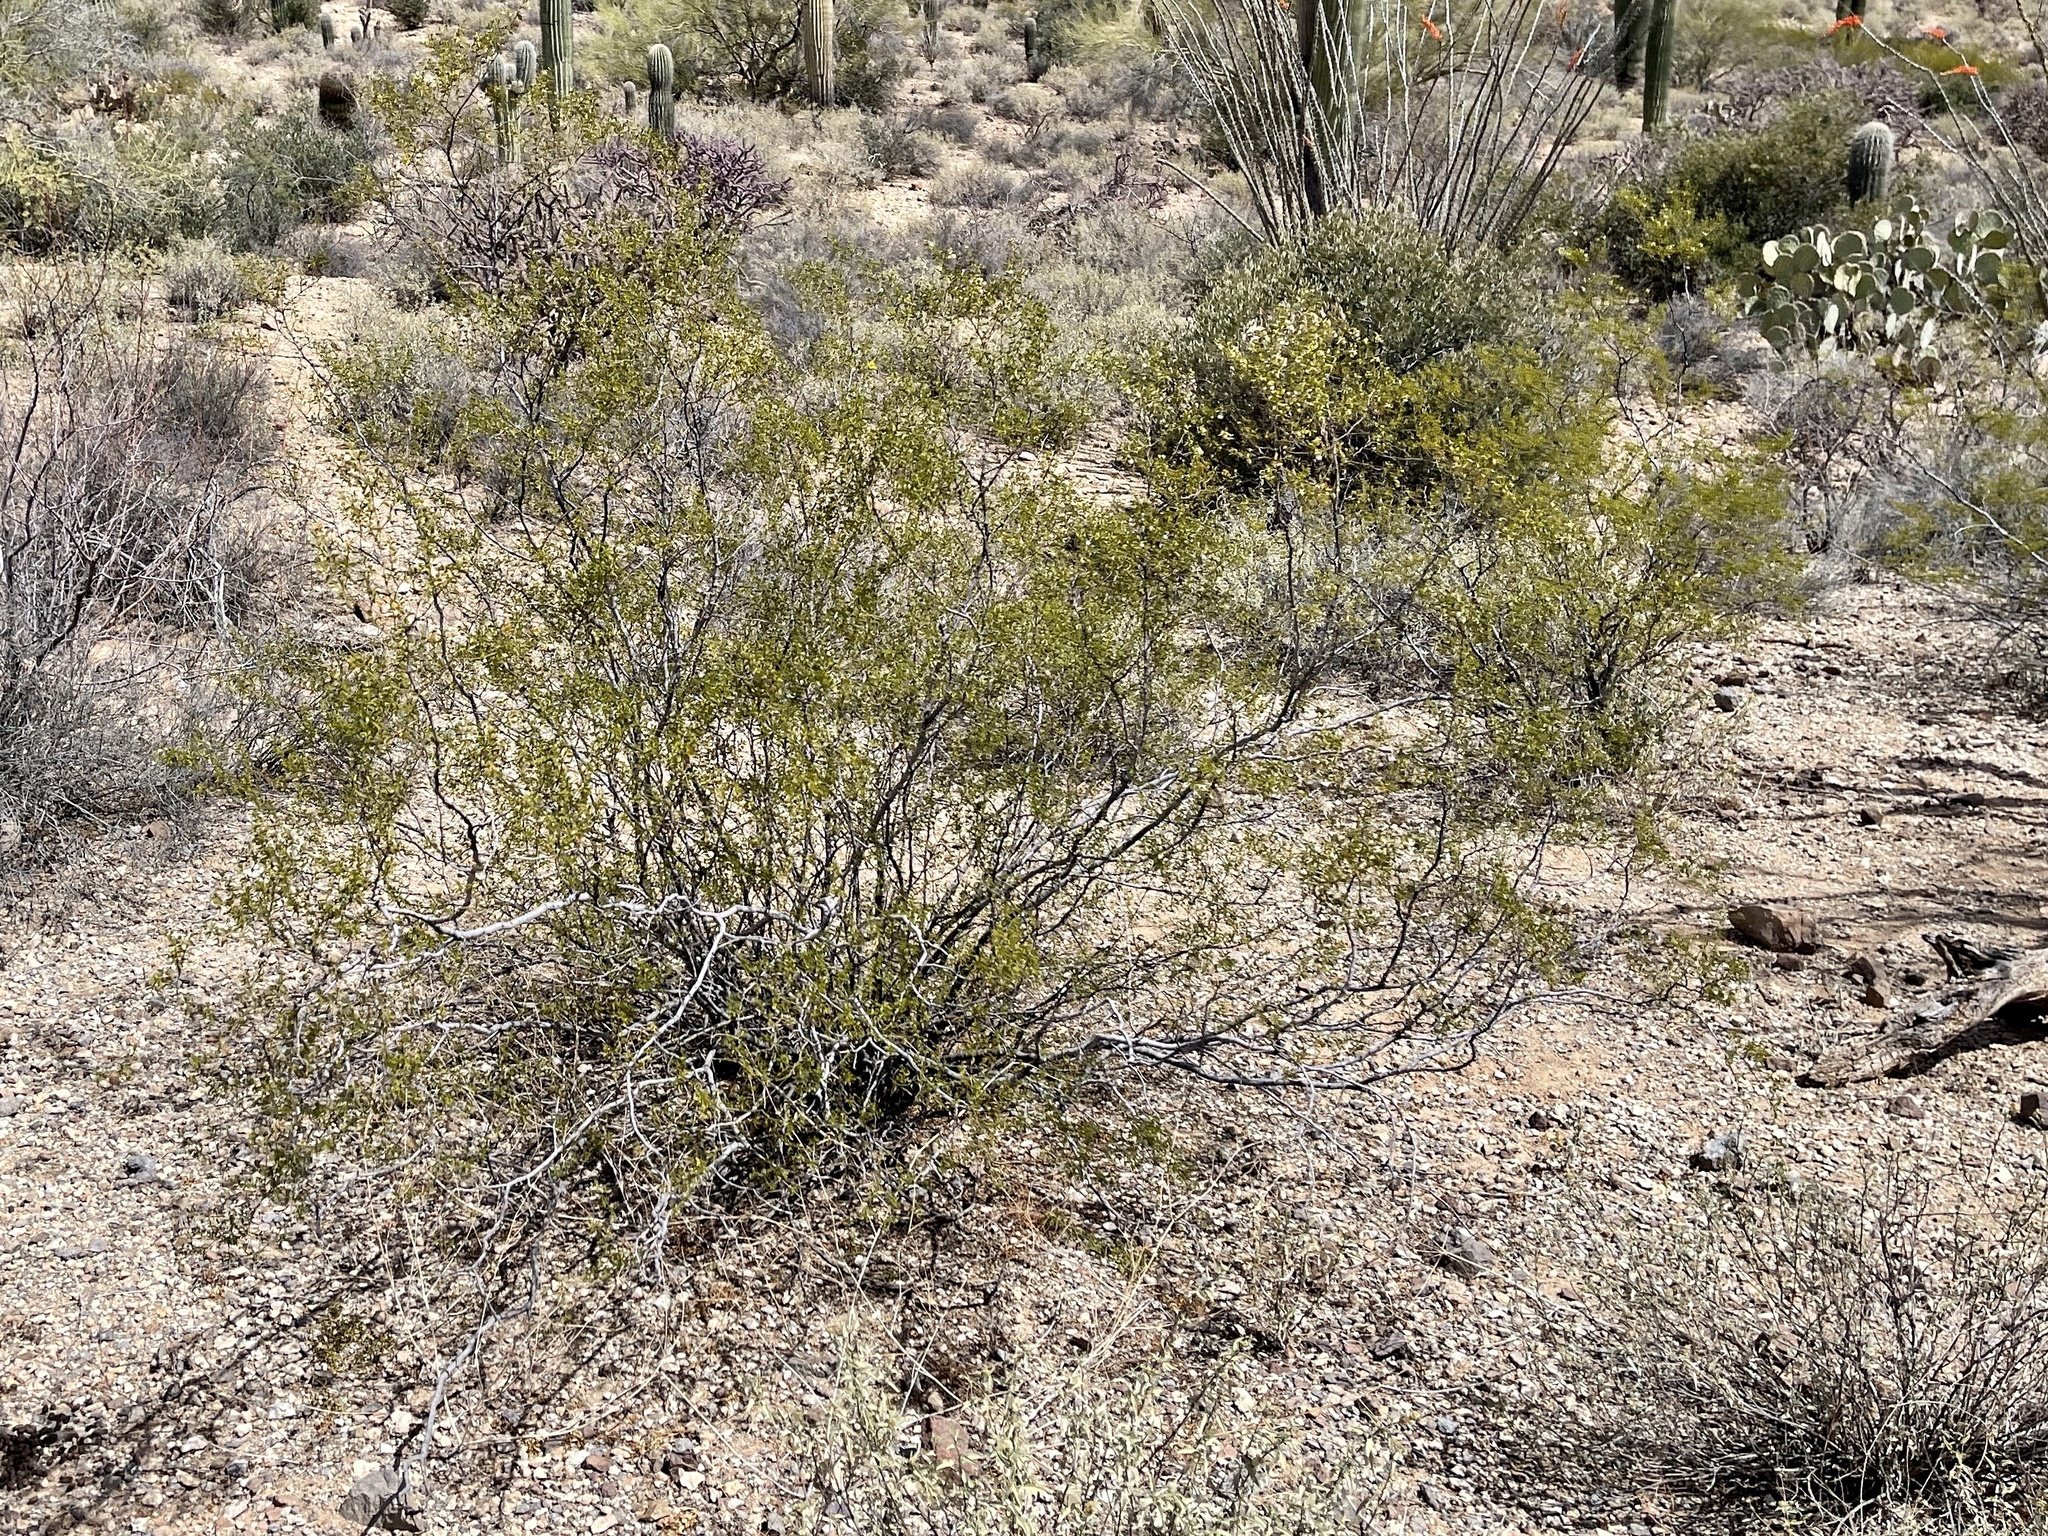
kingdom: Plantae
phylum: Tracheophyta
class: Magnoliopsida
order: Zygophyllales
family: Zygophyllaceae
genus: Larrea
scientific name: Larrea tridentata
